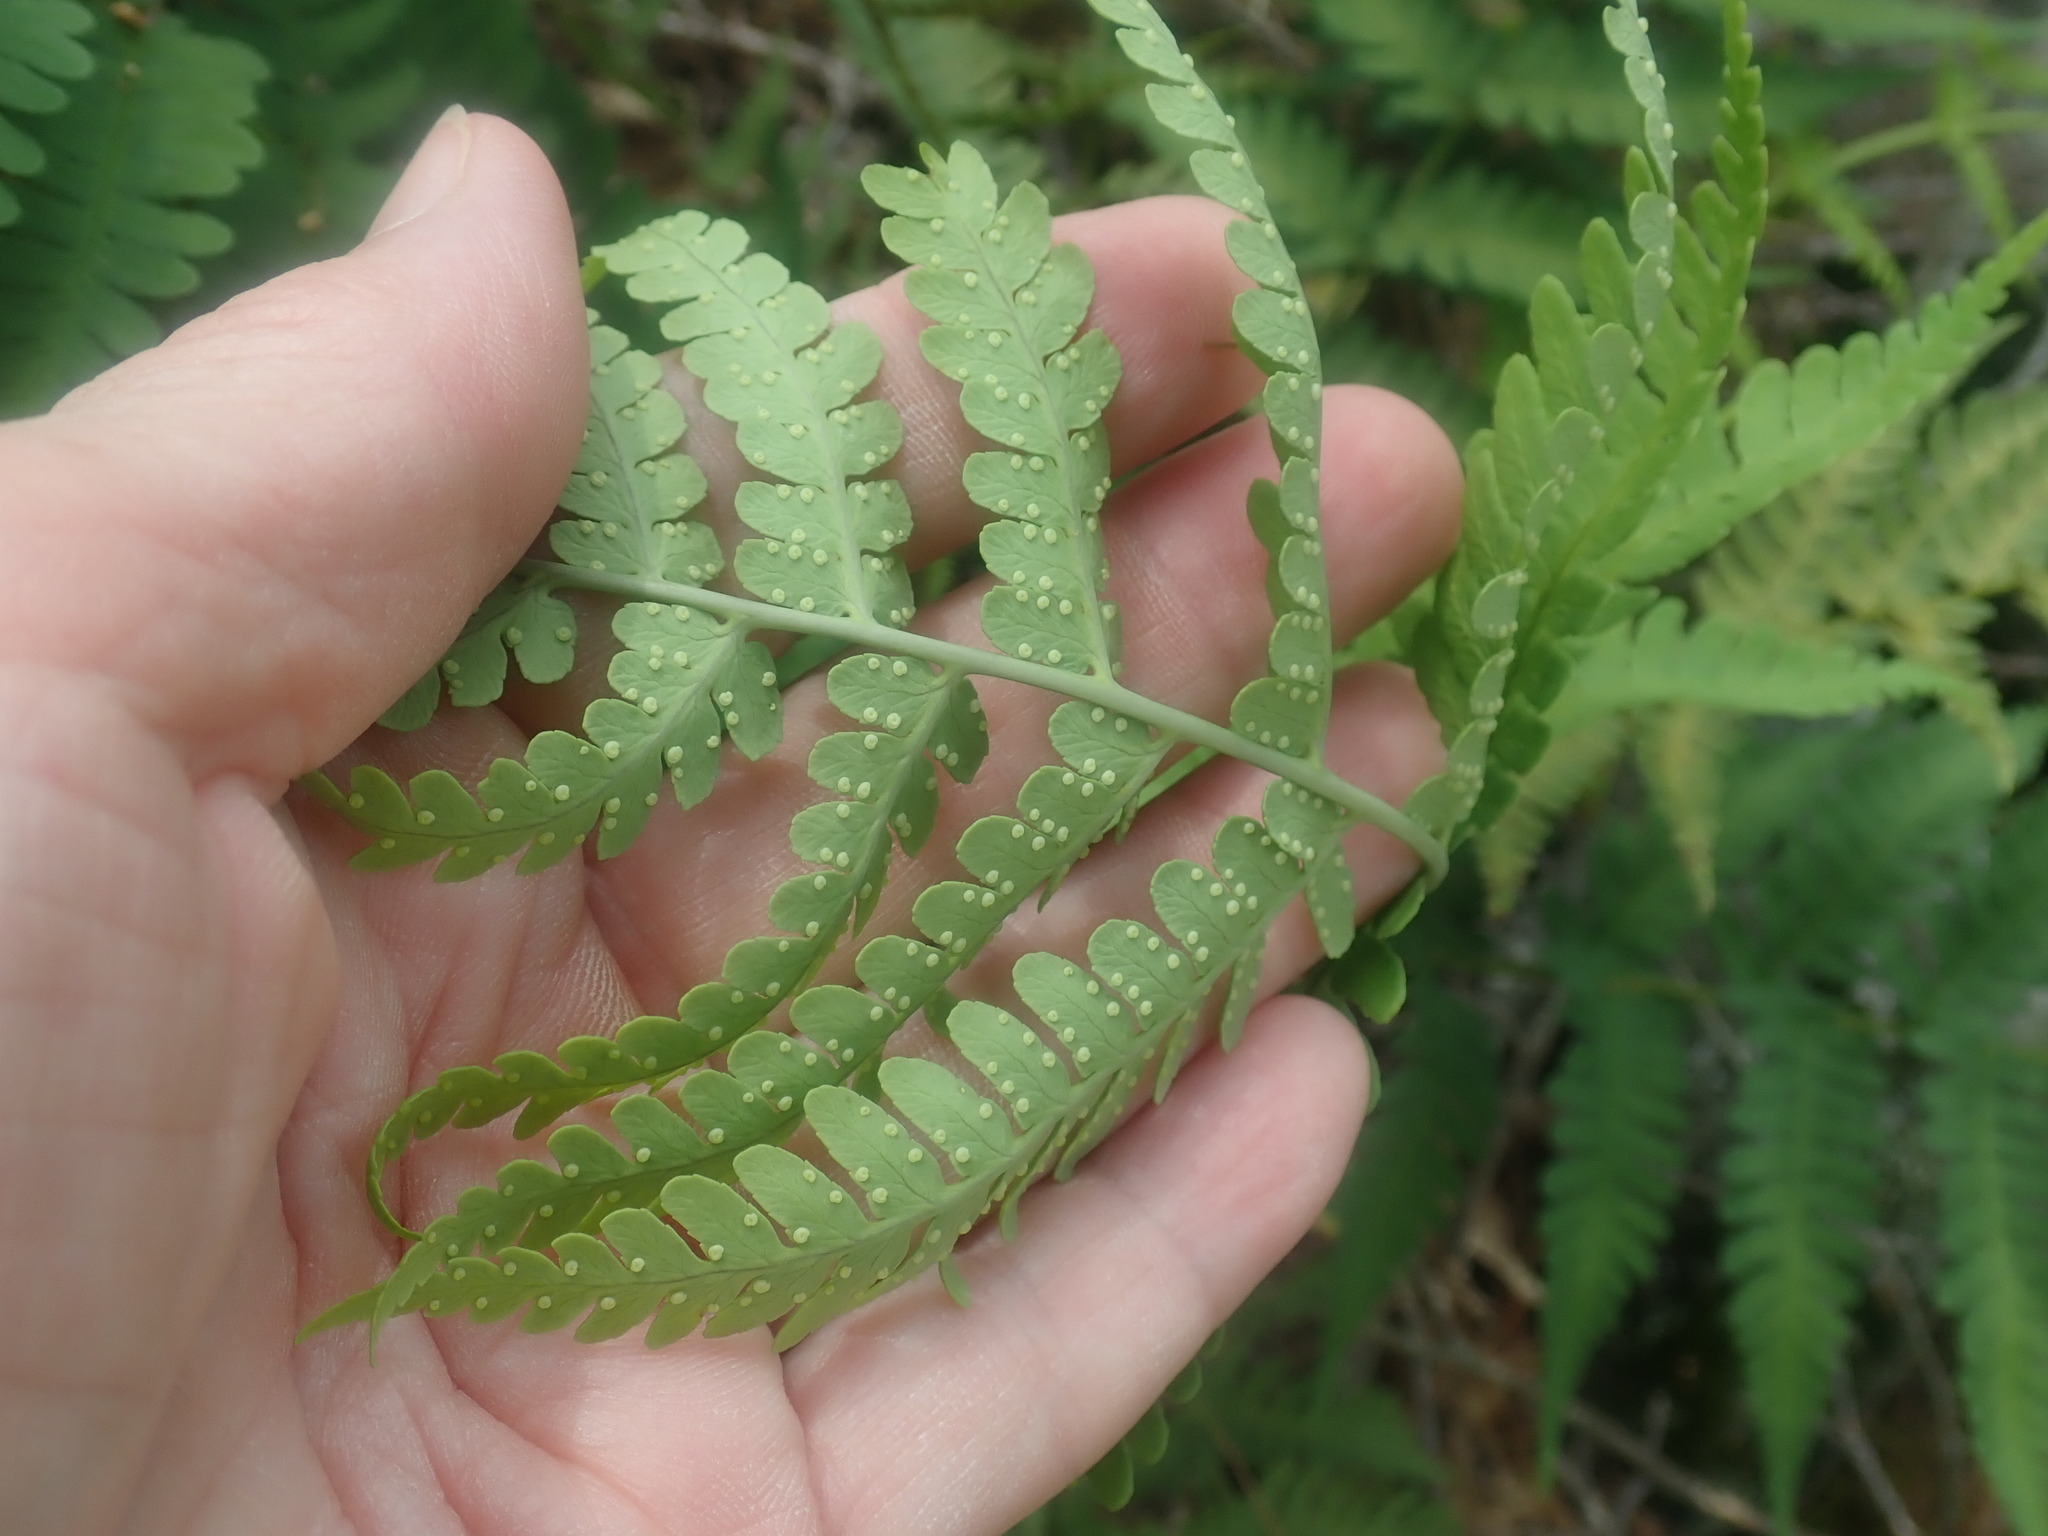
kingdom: Plantae
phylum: Tracheophyta
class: Polypodiopsida
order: Polypodiales
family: Dryopteridaceae
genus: Dryopteris
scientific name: Dryopteris marginalis
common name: Marginal wood fern
